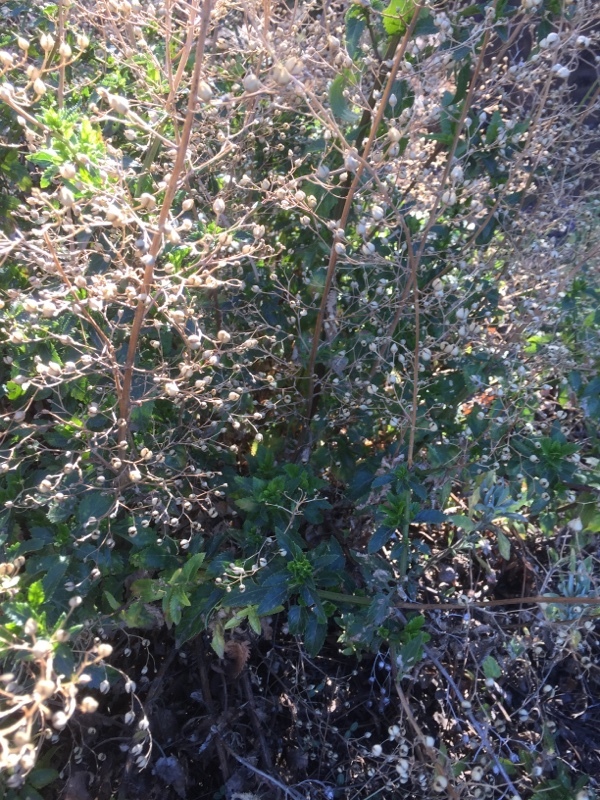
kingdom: Plantae
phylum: Tracheophyta
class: Magnoliopsida
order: Lamiales
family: Scrophulariaceae
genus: Scrophularia
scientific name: Scrophularia glabrata
